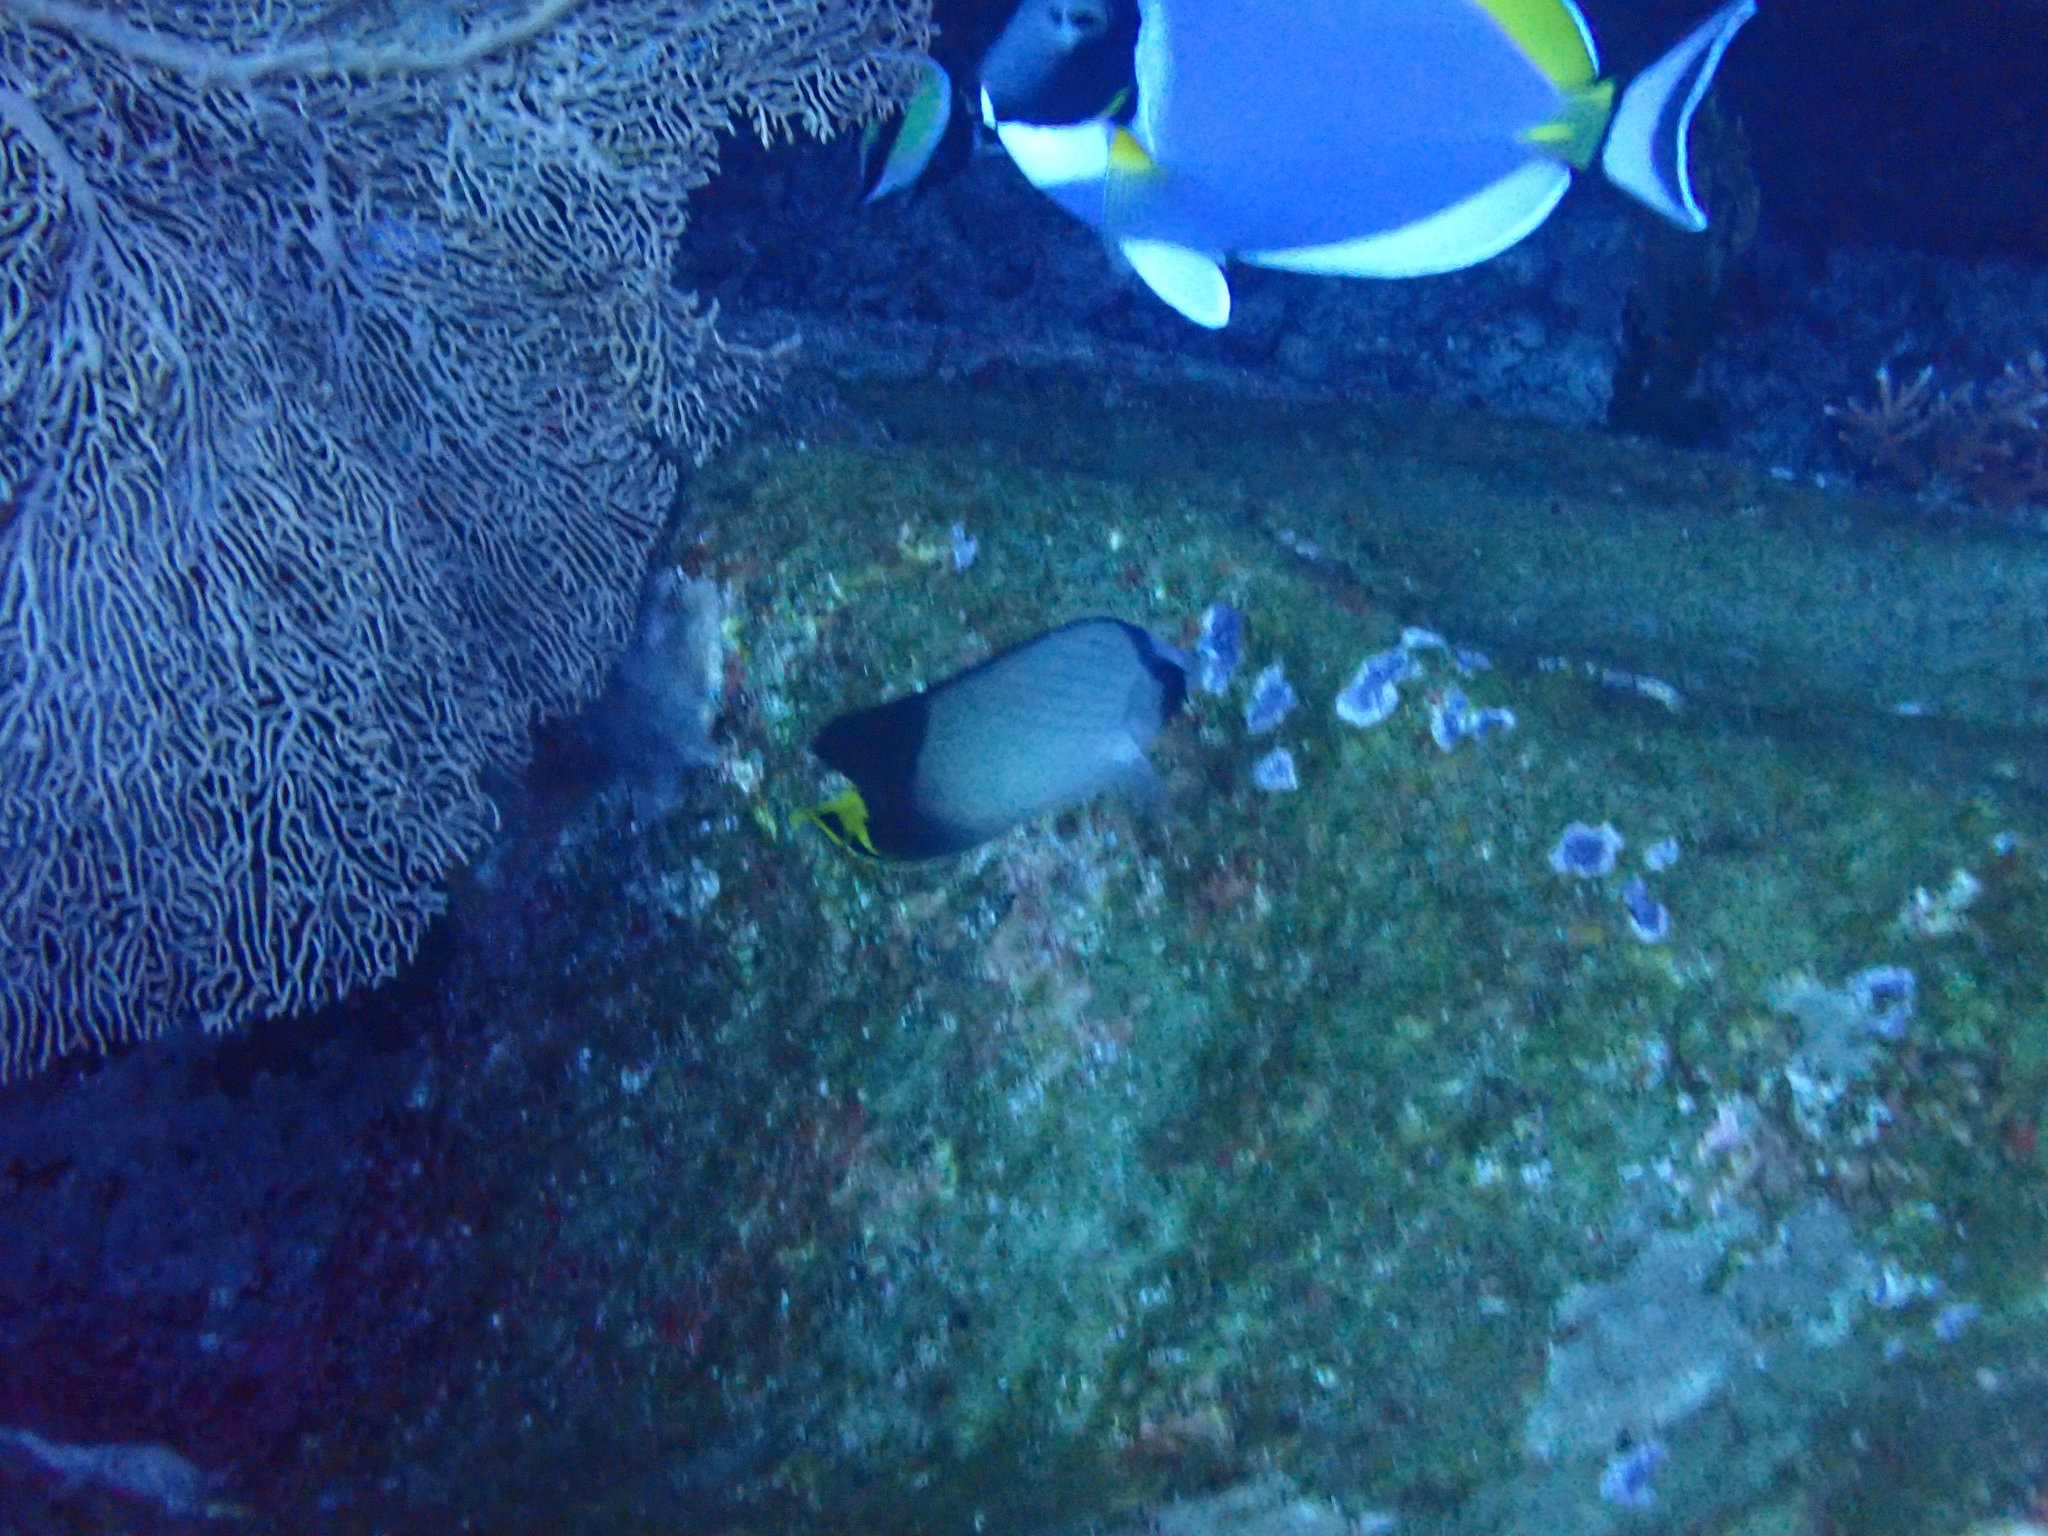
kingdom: Animalia
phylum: Chordata
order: Perciformes
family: Chaetodontidae
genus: Chaetodon
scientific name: Chaetodon decussatus
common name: Indian vagabond butterflyfish
